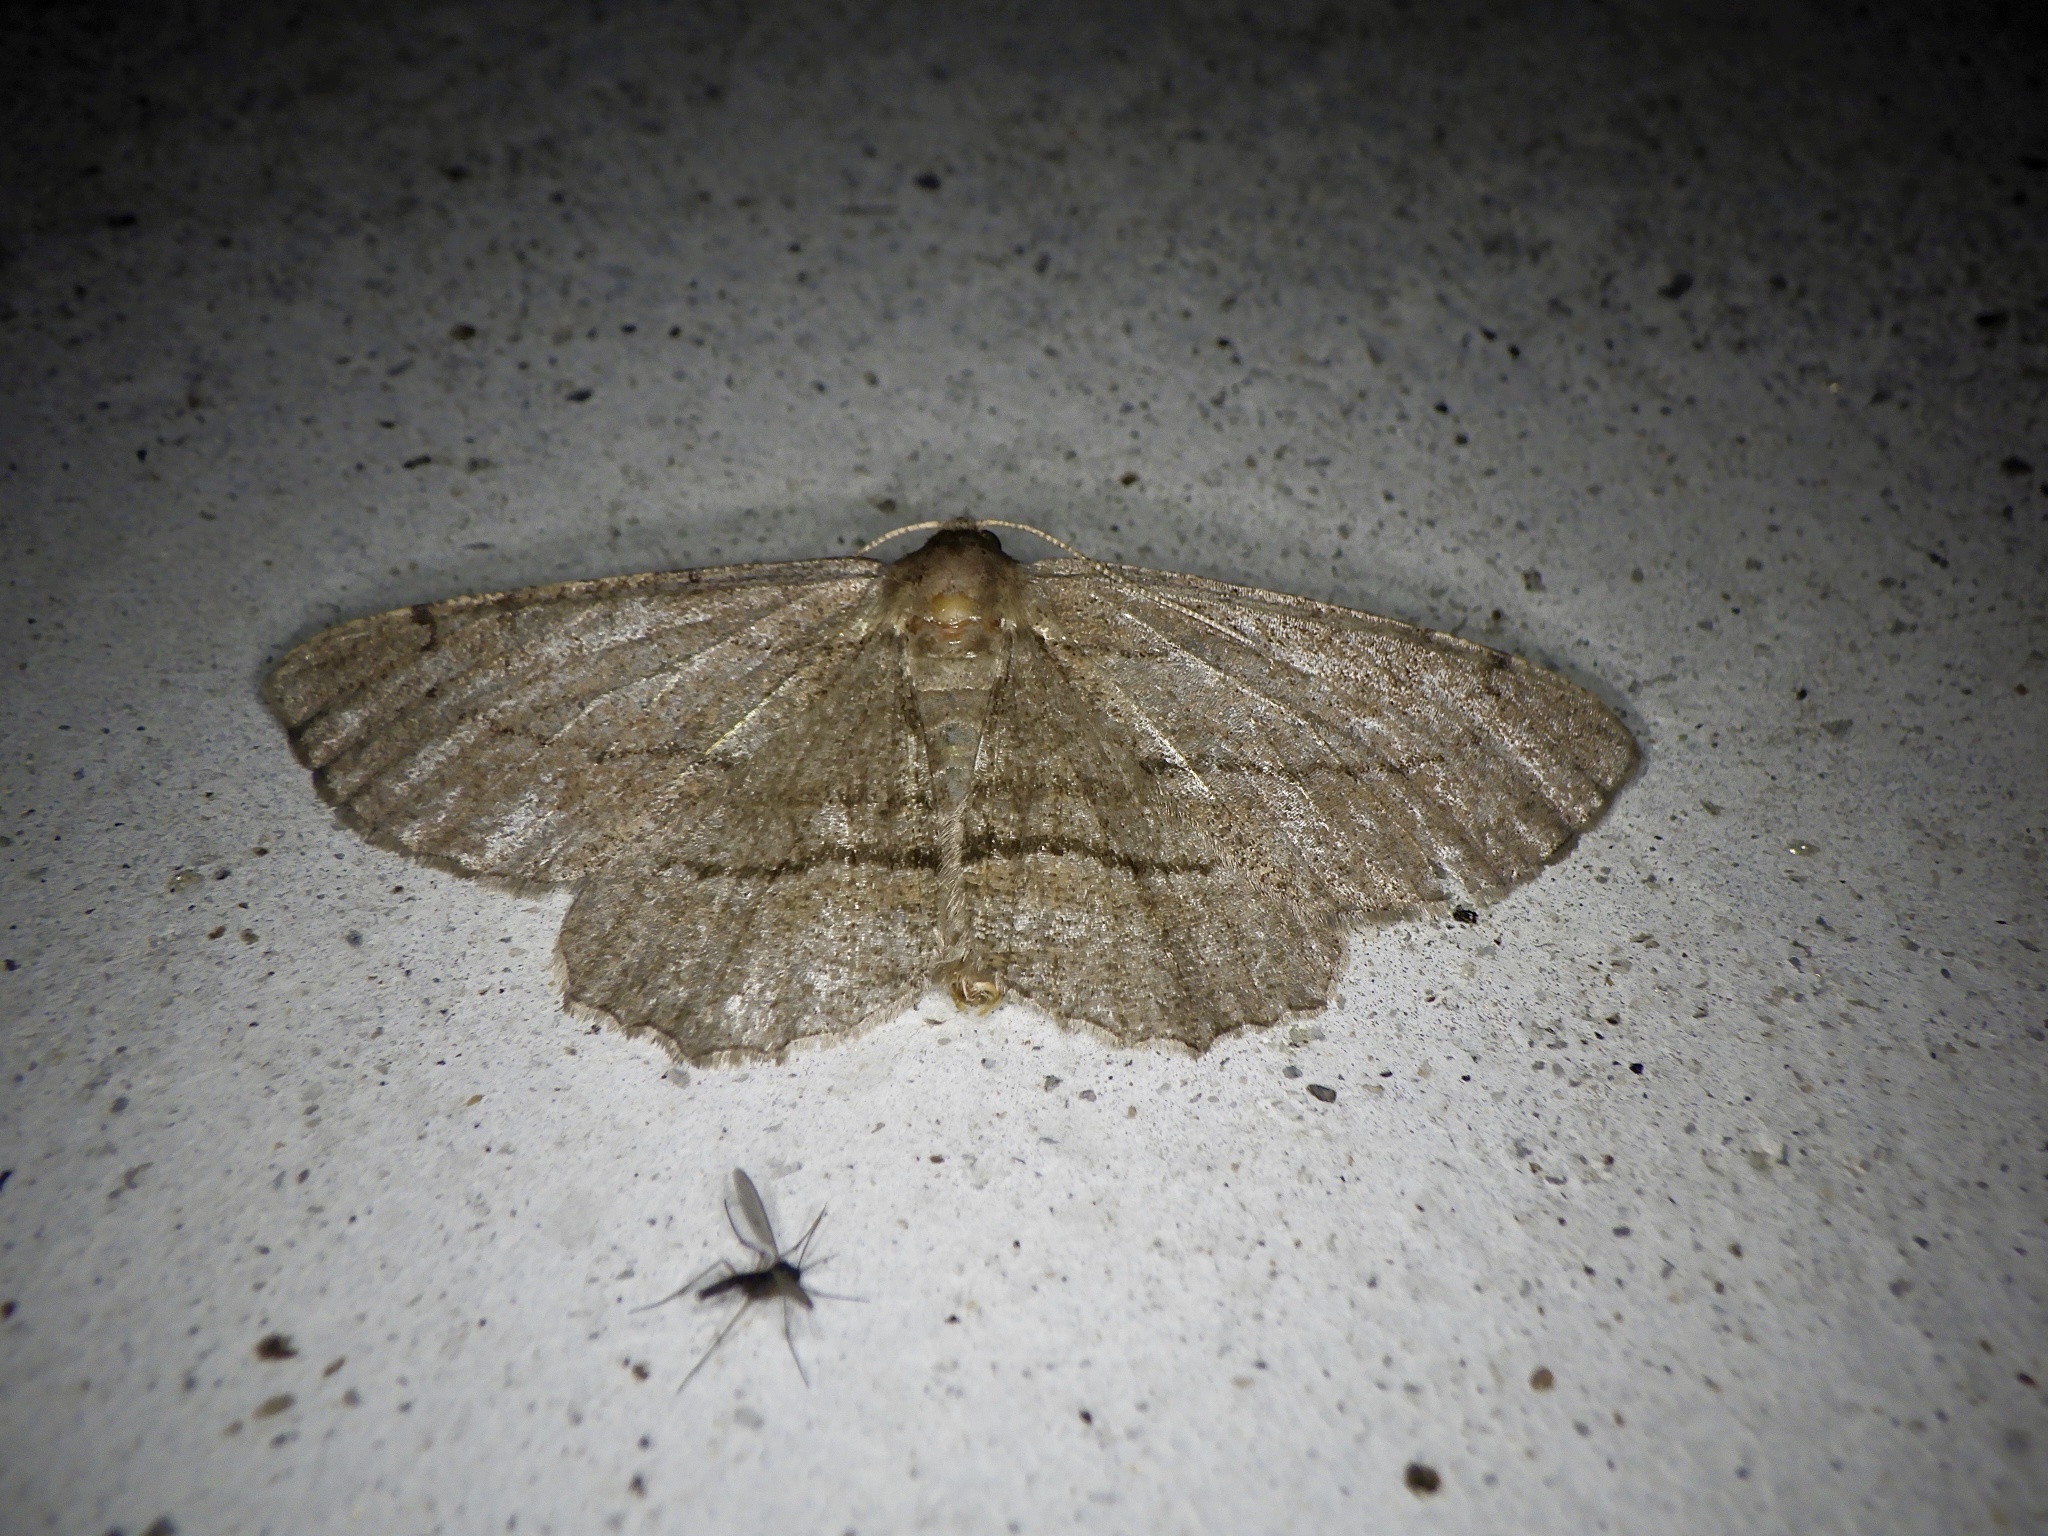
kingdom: Animalia
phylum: Arthropoda
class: Insecta
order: Lepidoptera
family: Geometridae
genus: Apocleora
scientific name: Apocleora rimosa
